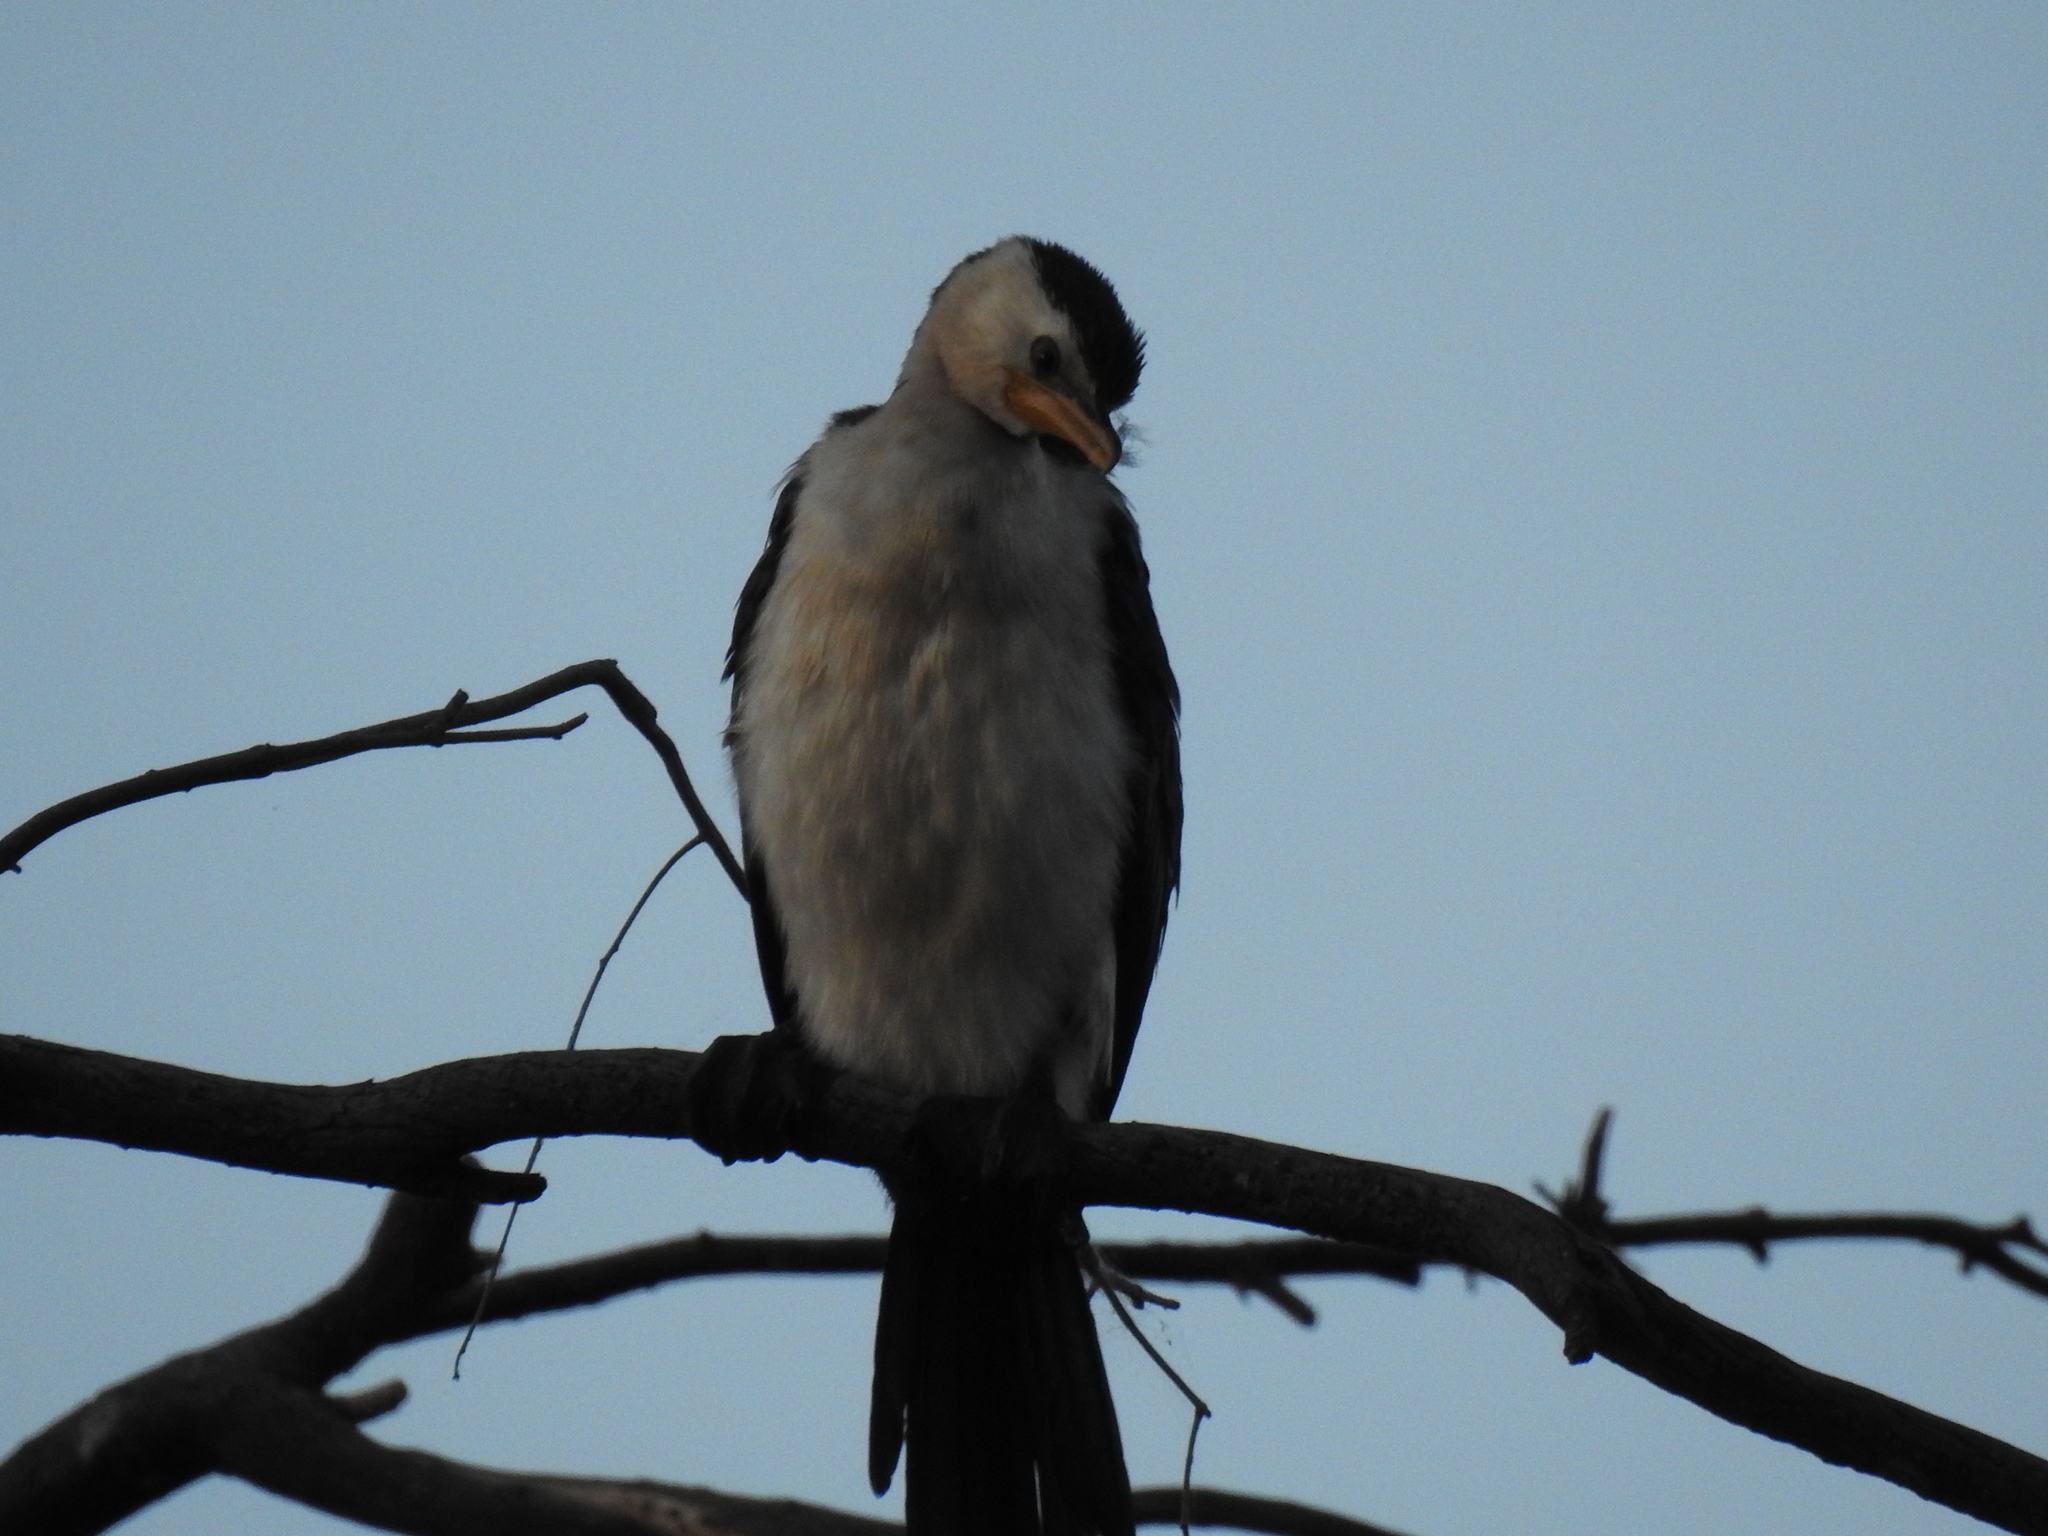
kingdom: Animalia
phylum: Chordata
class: Aves
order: Suliformes
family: Phalacrocoracidae
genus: Microcarbo
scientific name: Microcarbo melanoleucos
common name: Little pied cormorant
